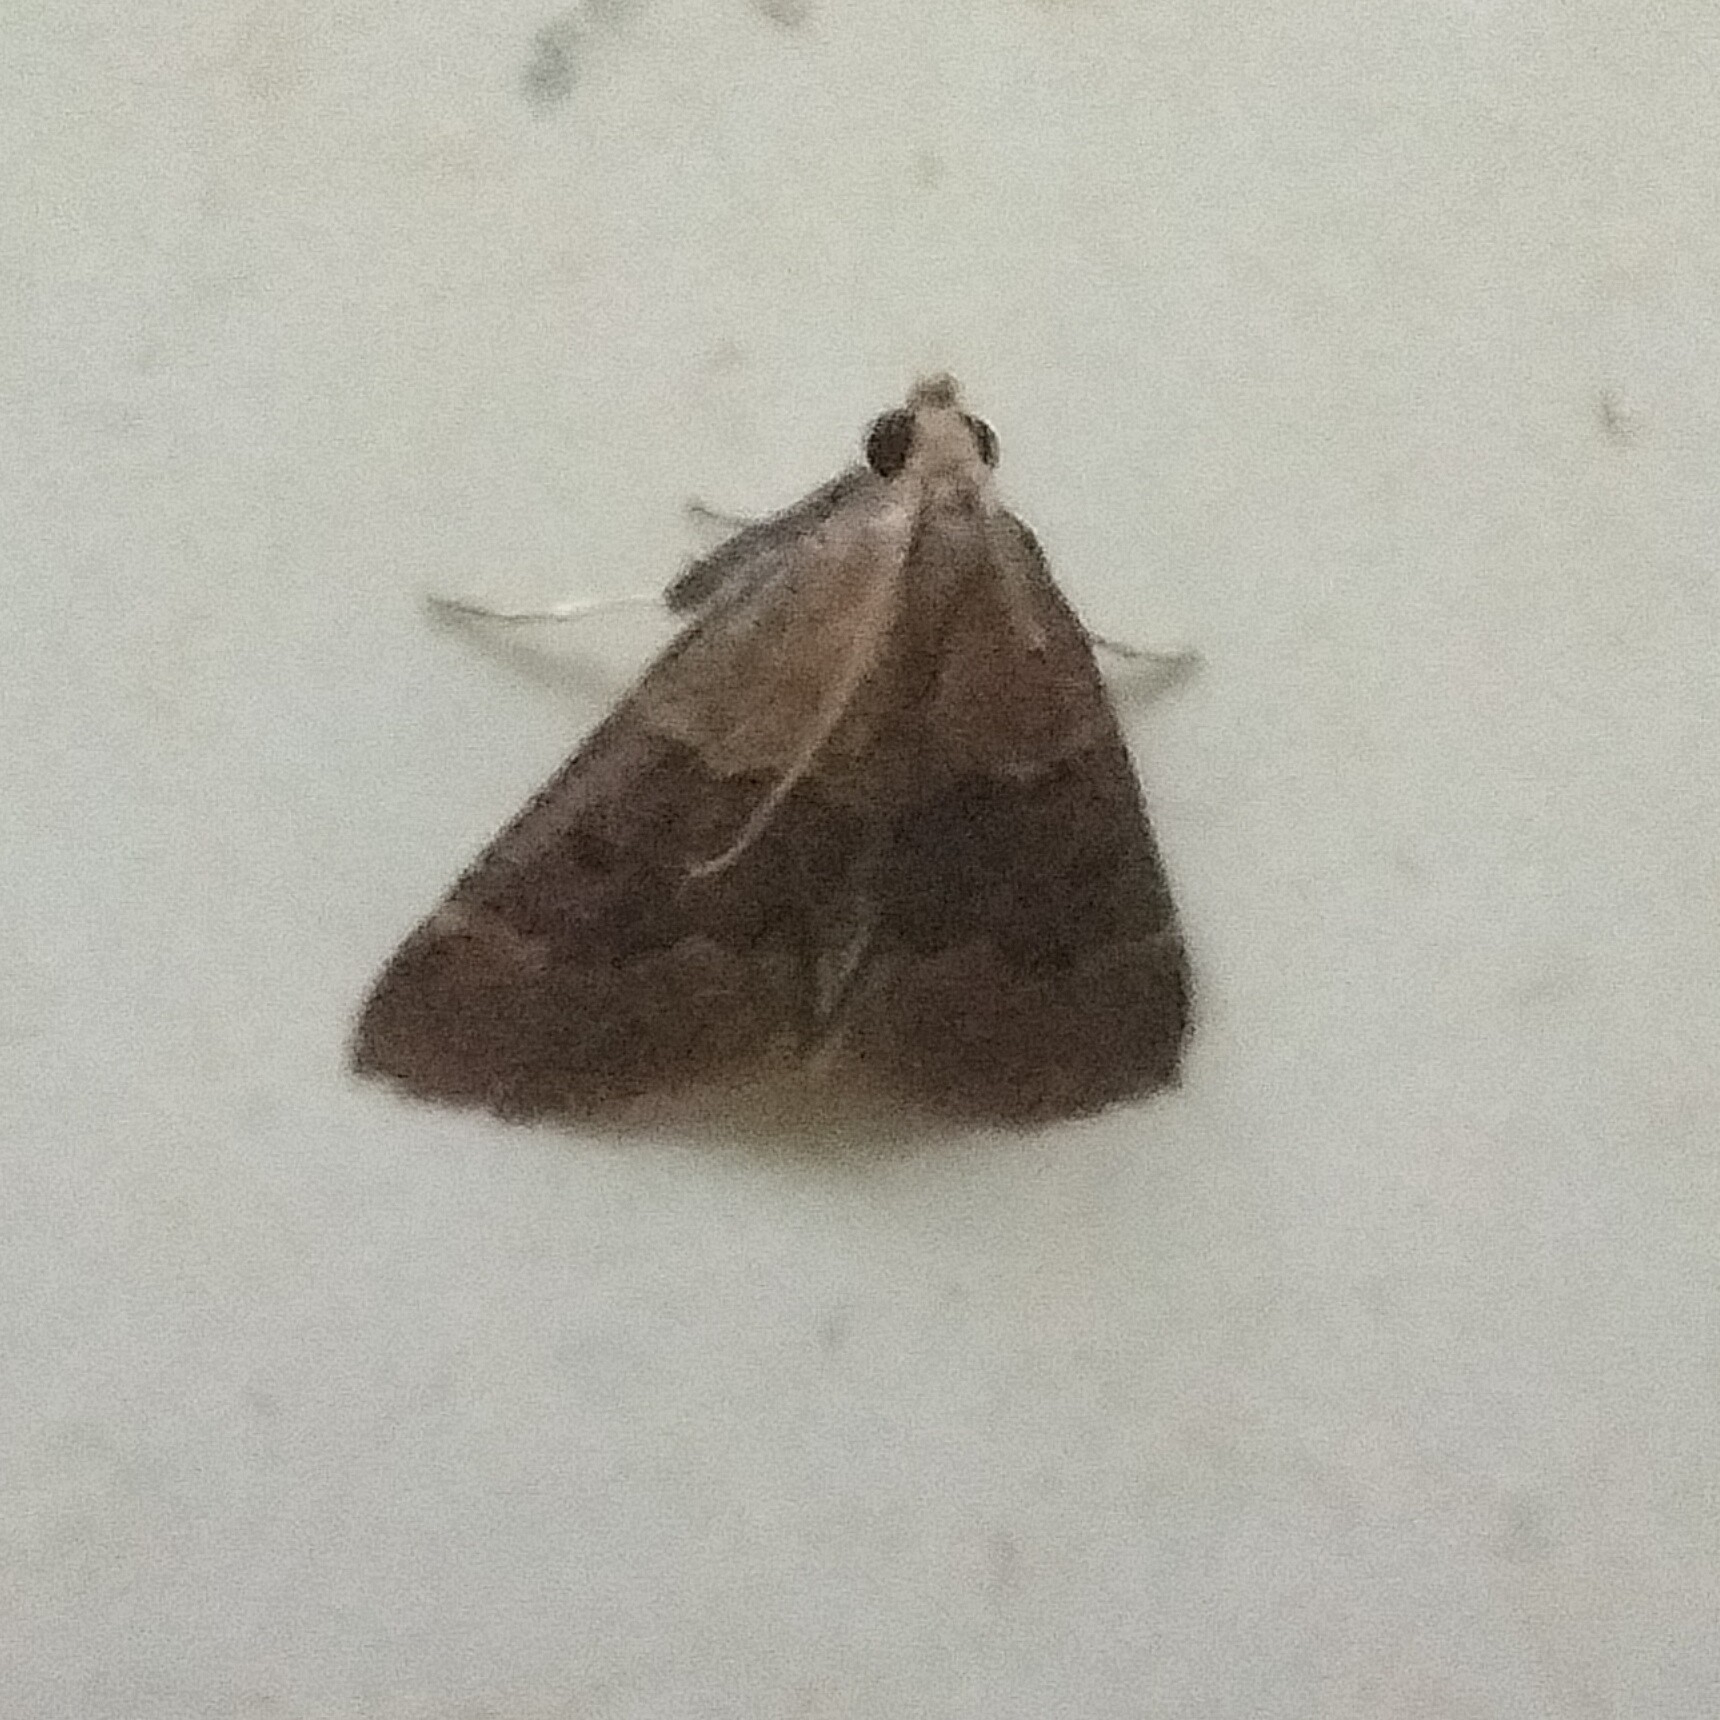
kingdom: Animalia
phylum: Arthropoda
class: Insecta
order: Lepidoptera
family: Pyralidae
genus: Arippara
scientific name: Arippara indicator
